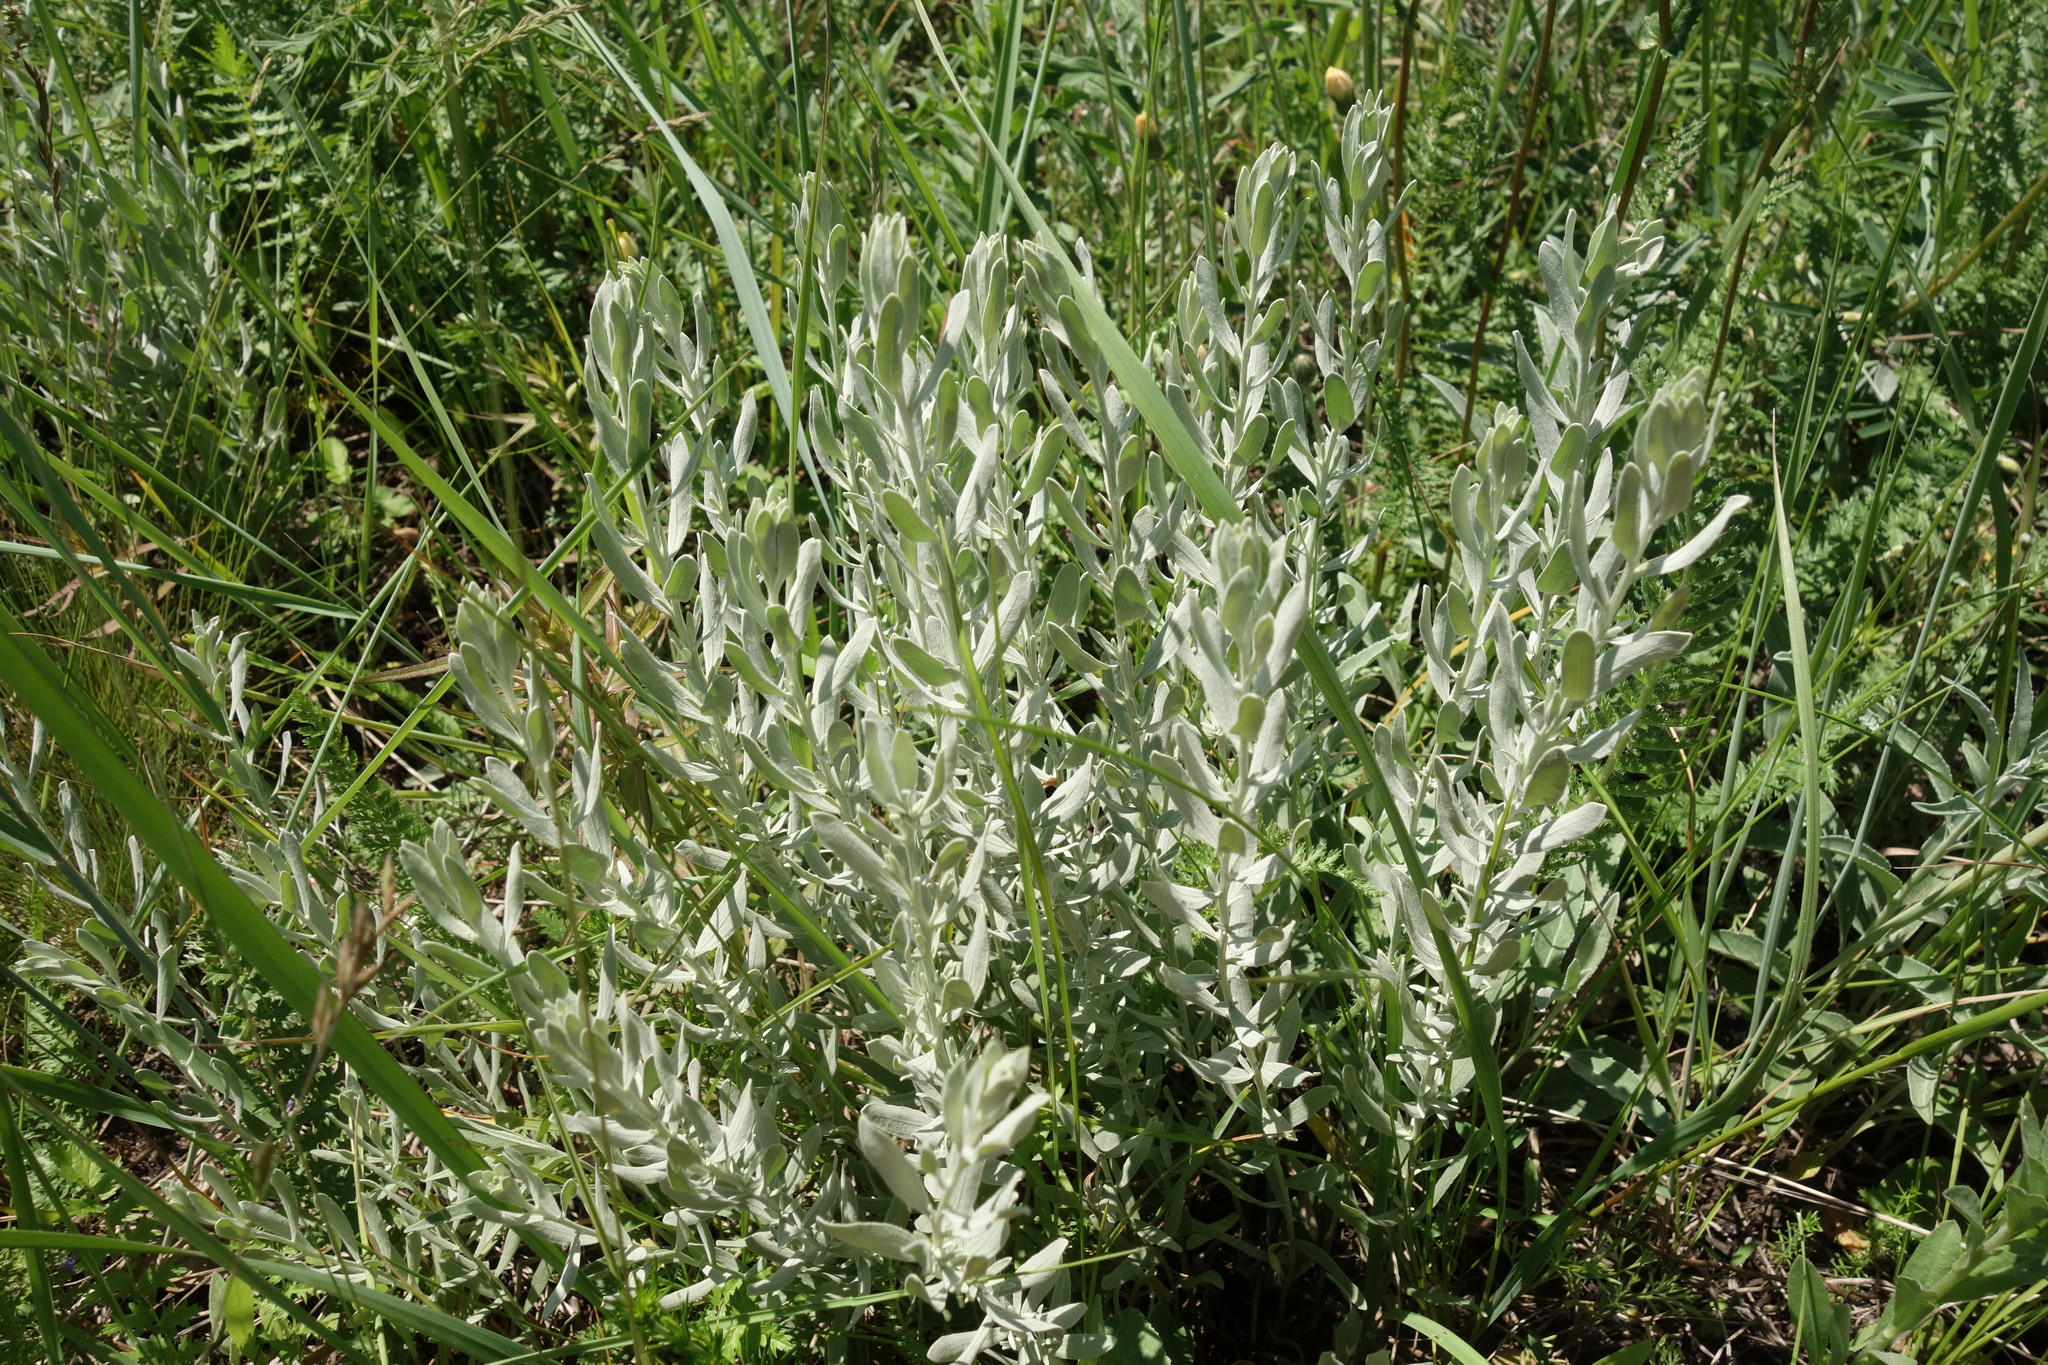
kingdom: Plantae
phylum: Tracheophyta
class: Magnoliopsida
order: Asterales
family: Asteraceae
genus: Galatella
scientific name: Galatella villosa
